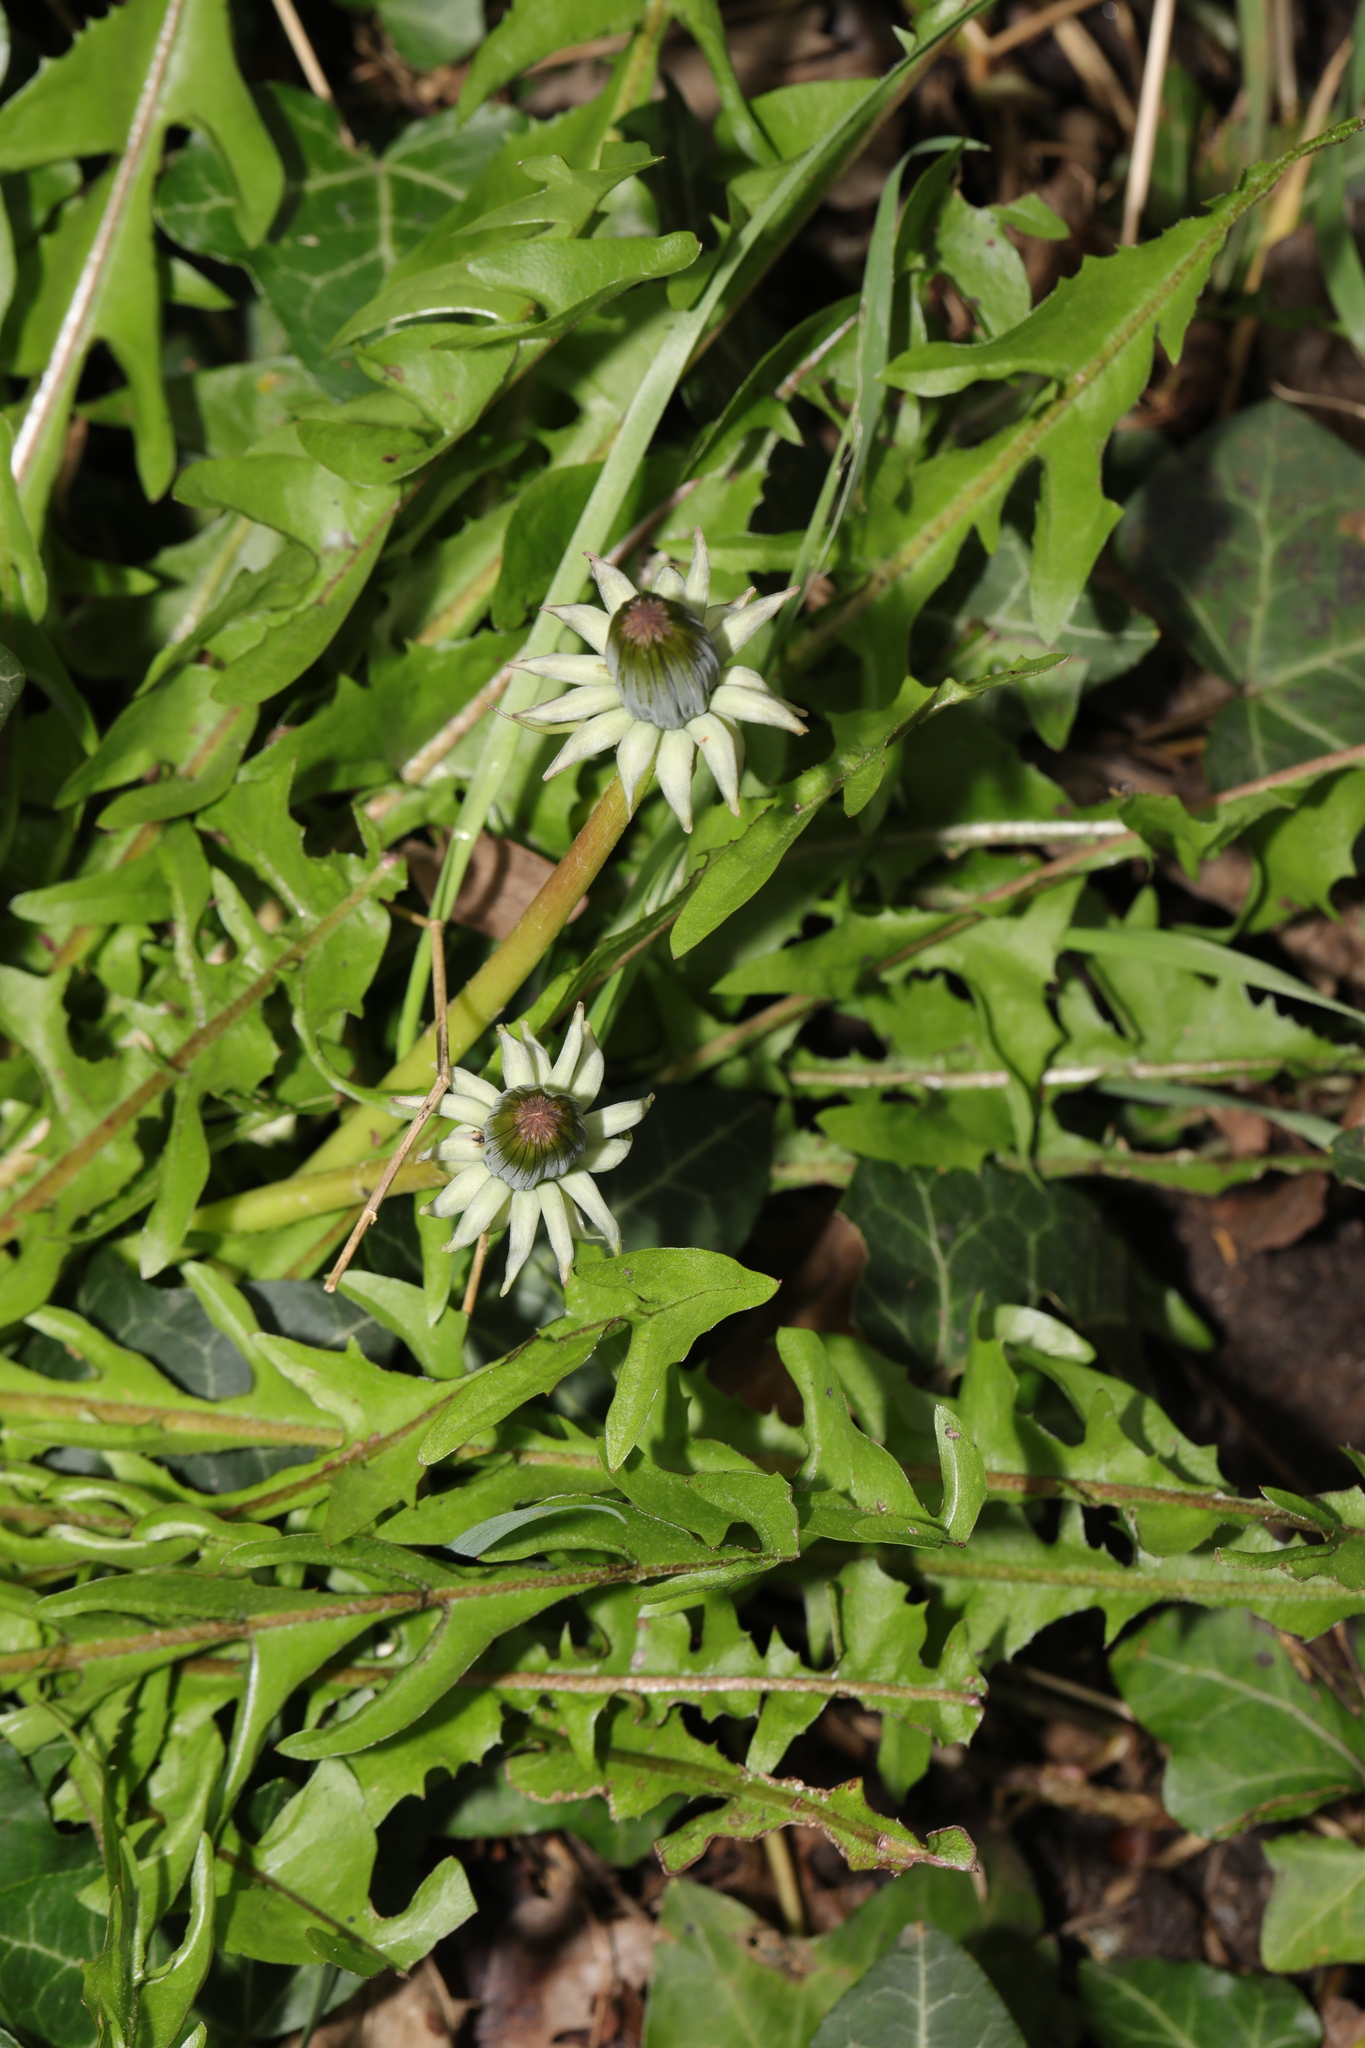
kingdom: Plantae
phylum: Tracheophyta
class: Magnoliopsida
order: Asterales
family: Asteraceae
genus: Taraxacum
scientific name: Taraxacum officinale
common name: Common dandelion
